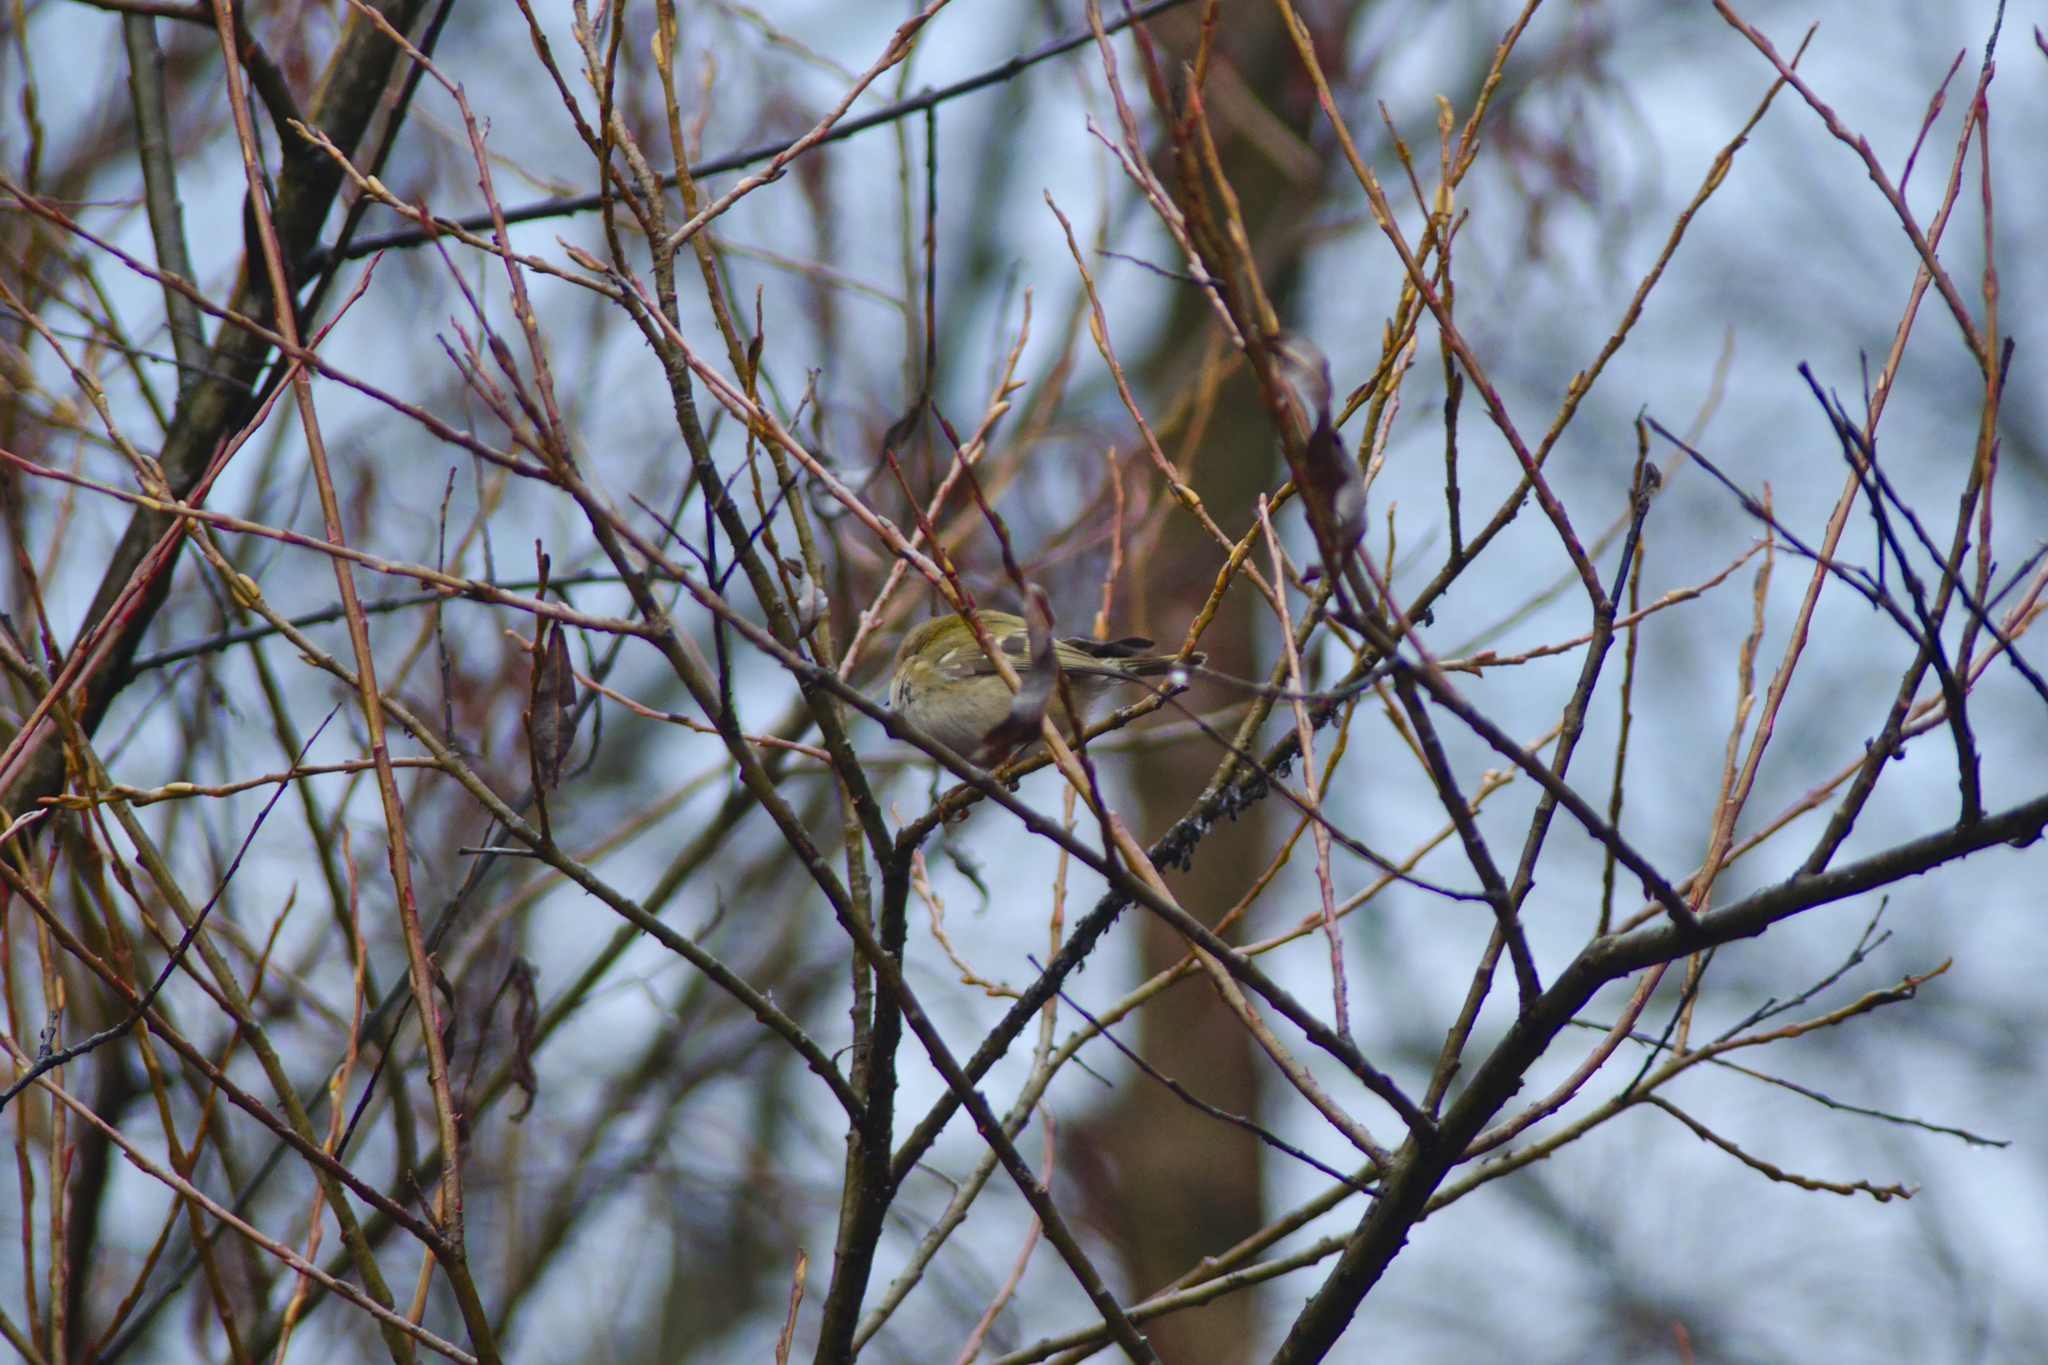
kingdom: Animalia
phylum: Chordata
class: Aves
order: Passeriformes
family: Regulidae
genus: Regulus
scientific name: Regulus regulus
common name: Goldcrest
